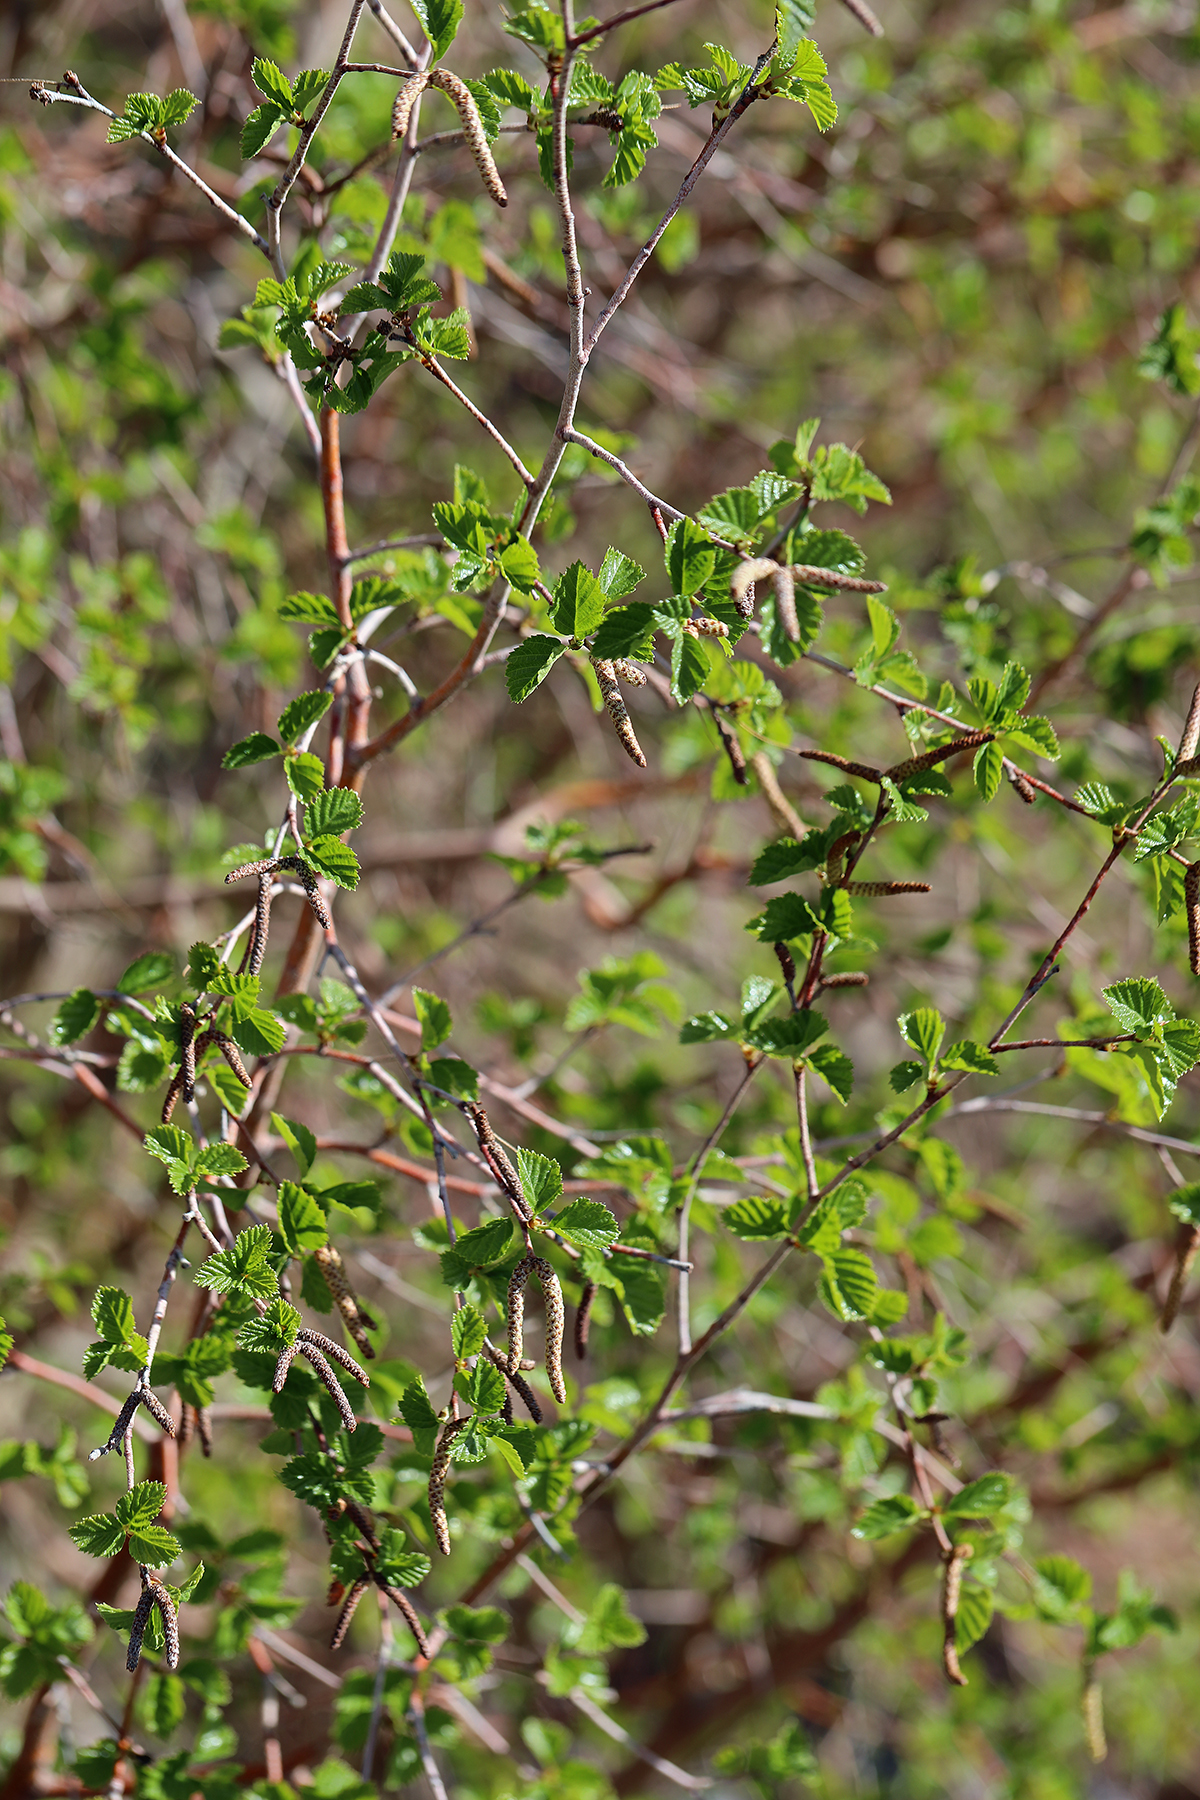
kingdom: Plantae
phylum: Tracheophyta
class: Magnoliopsida
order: Fagales
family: Betulaceae
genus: Betula
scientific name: Betula occidentalis
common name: River birch
